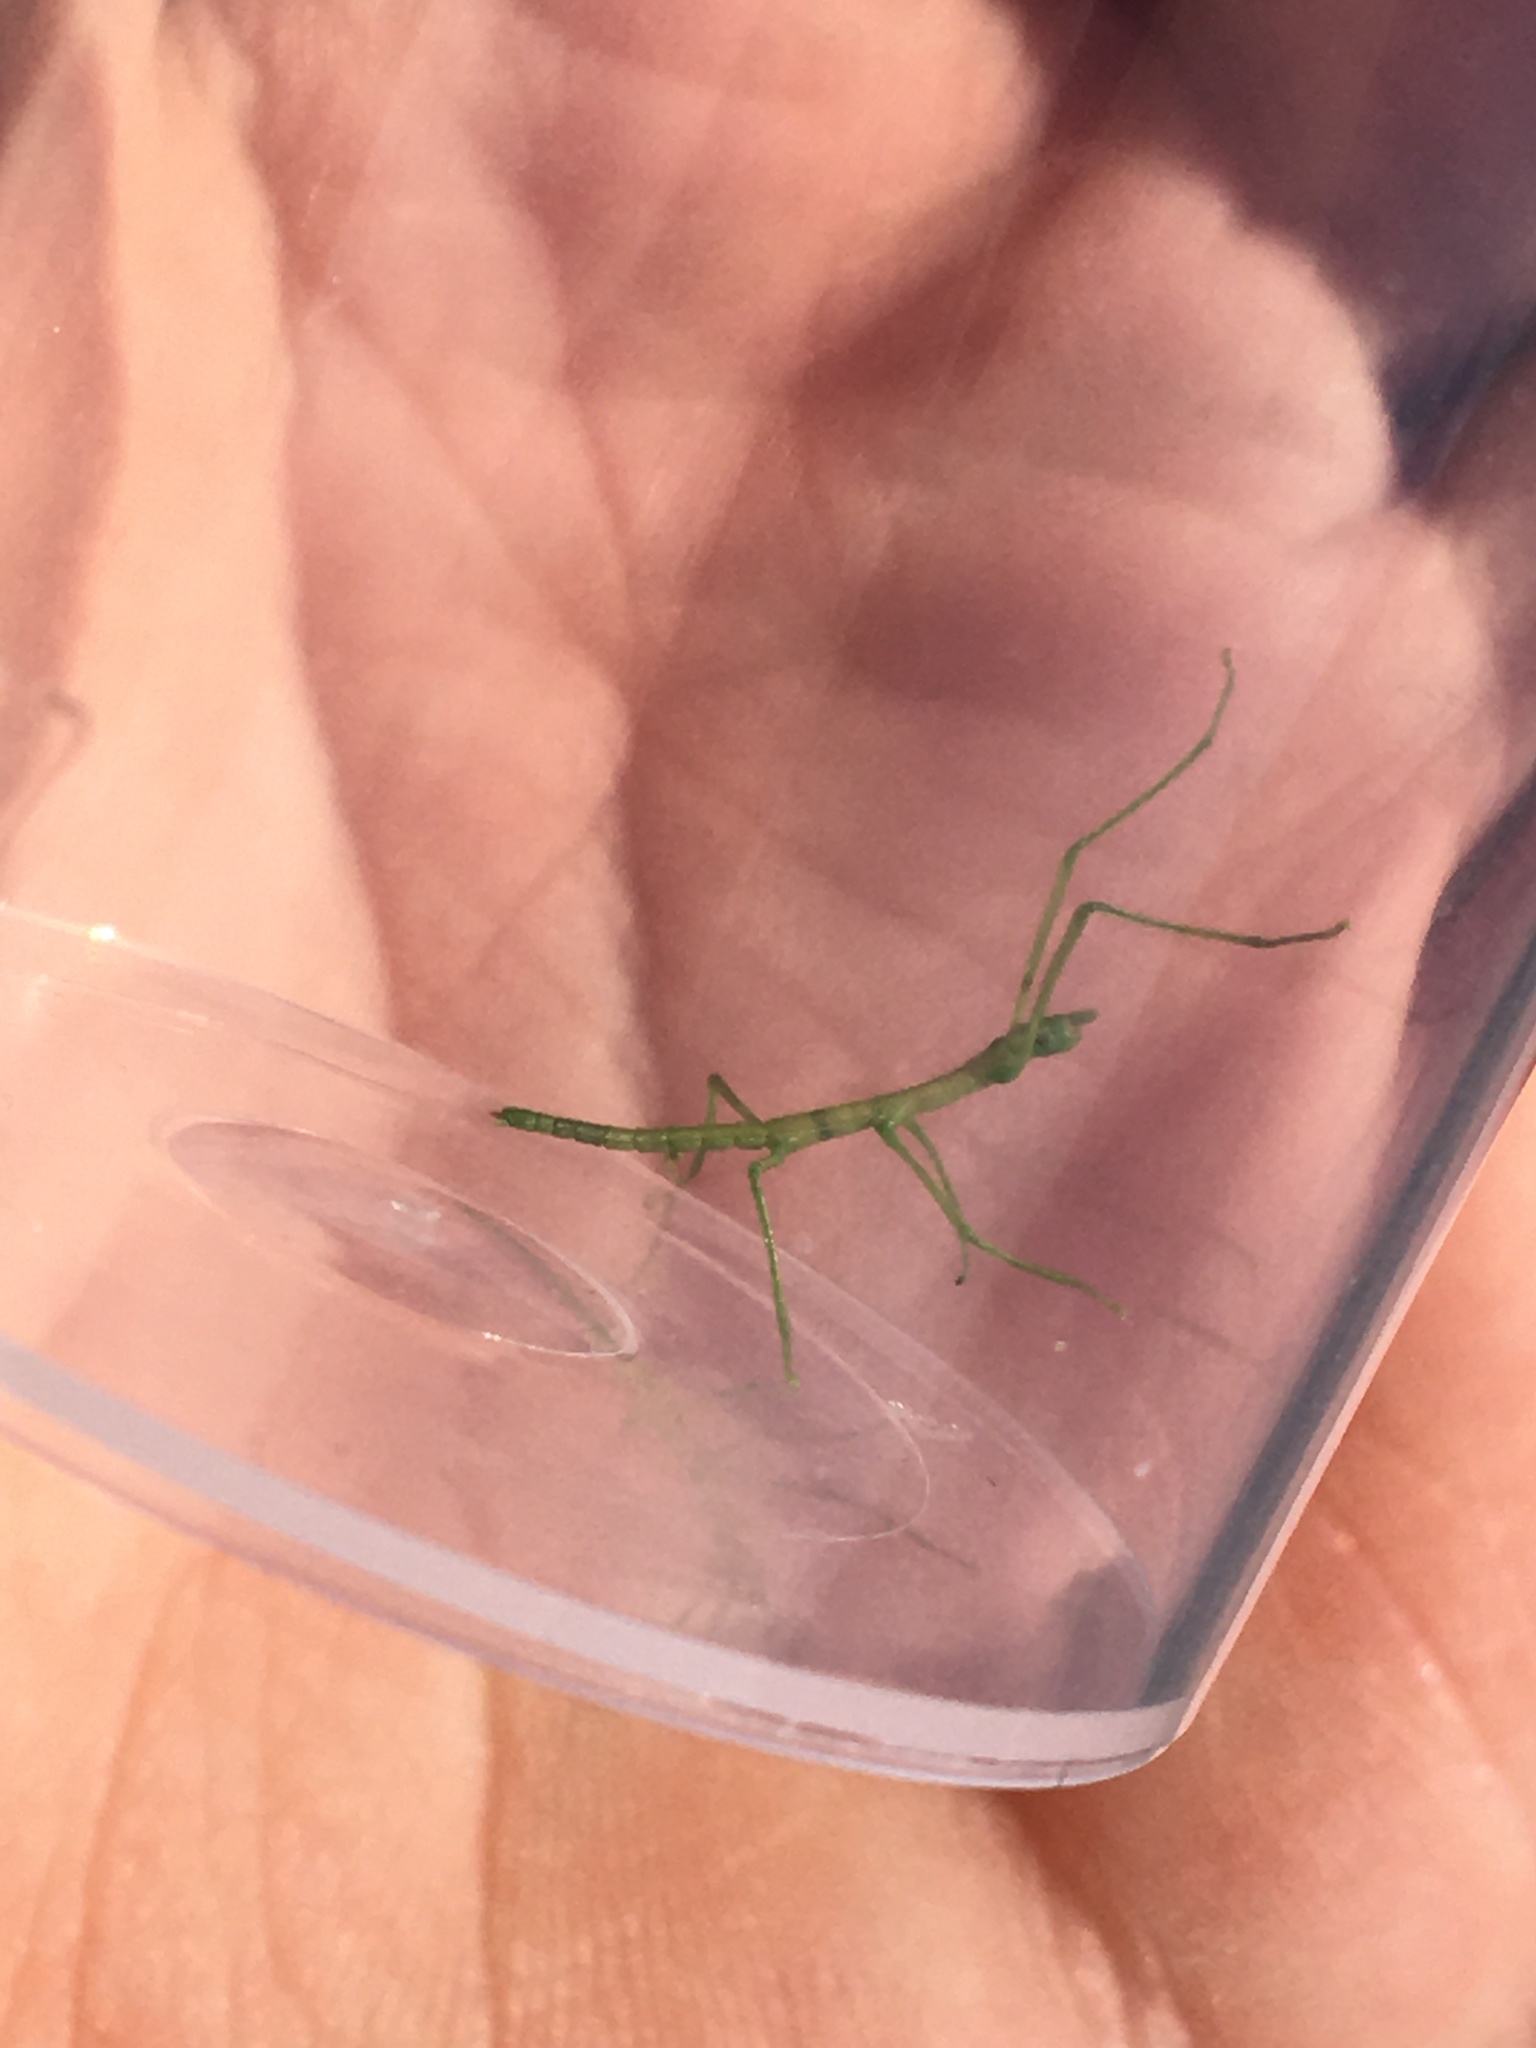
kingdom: Animalia
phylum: Arthropoda
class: Insecta
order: Phasmida
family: Bacillidae
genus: Clonopsis
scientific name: Clonopsis gallica
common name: French stick insect
